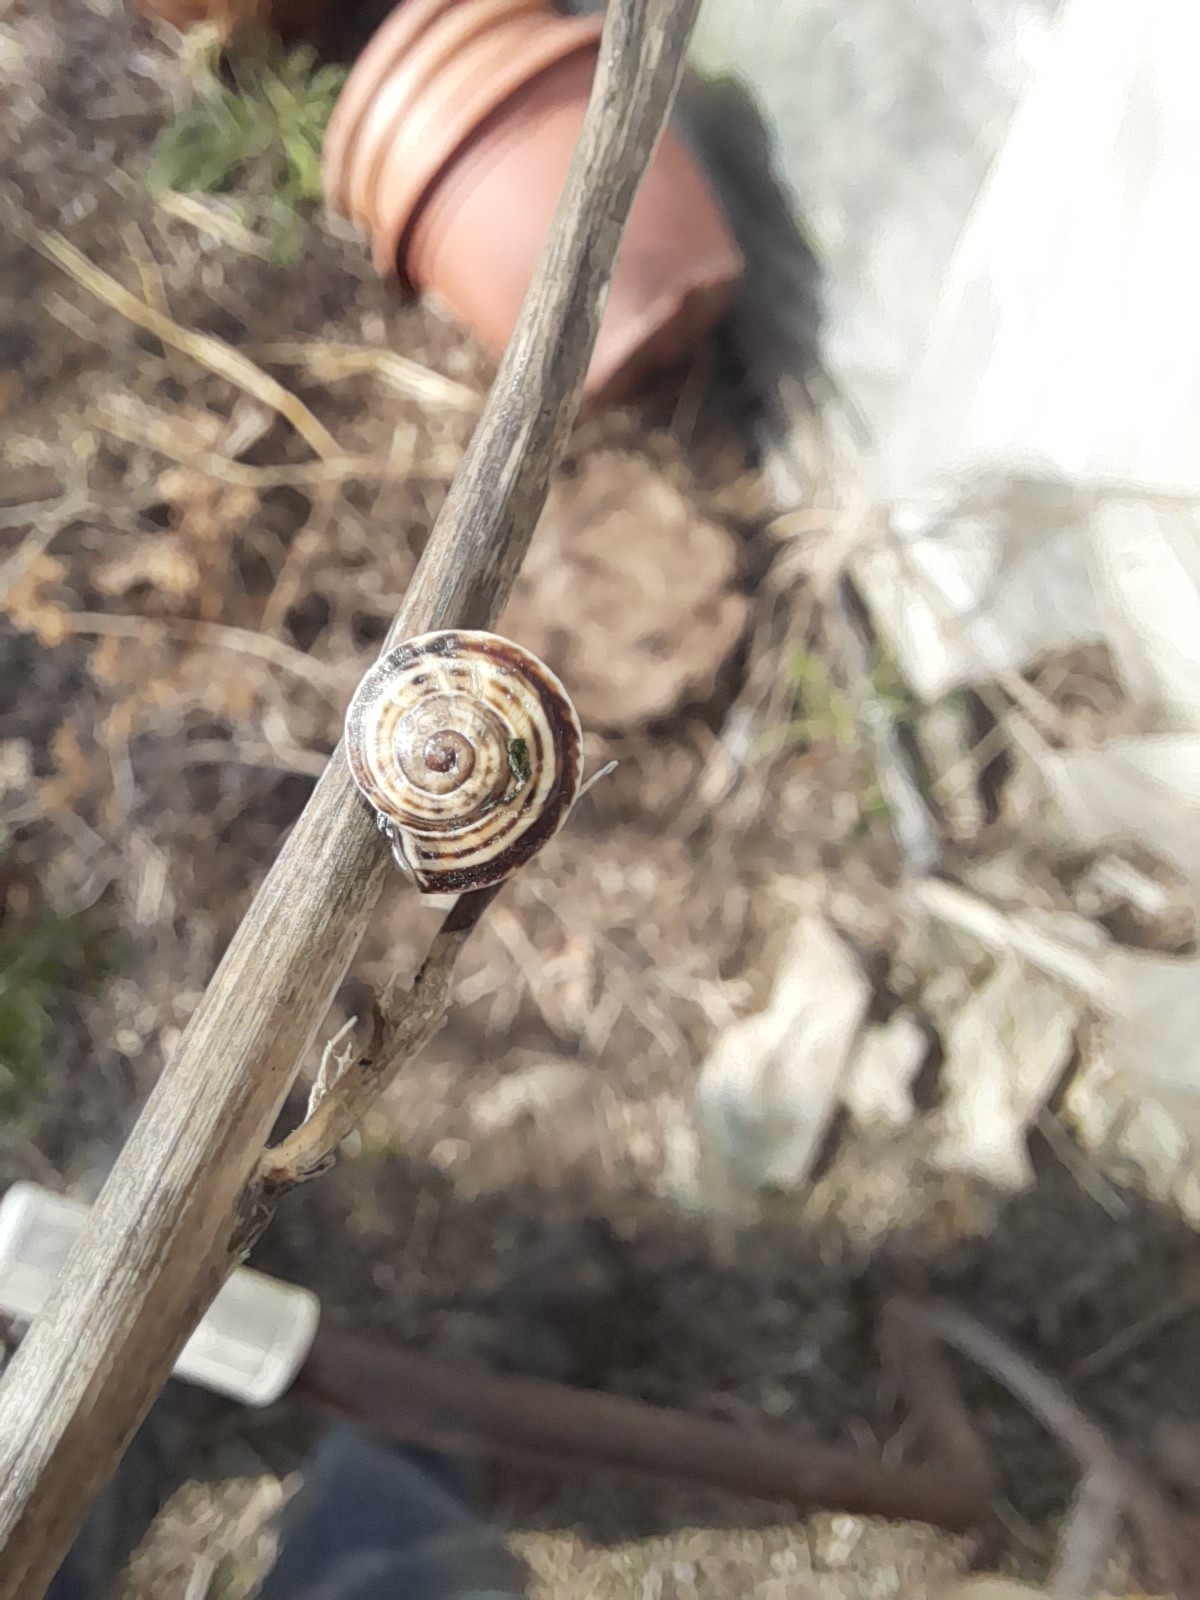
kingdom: Animalia
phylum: Mollusca
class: Gastropoda
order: Stylommatophora
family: Helicidae
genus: Theba
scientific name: Theba pisana
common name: White snail
